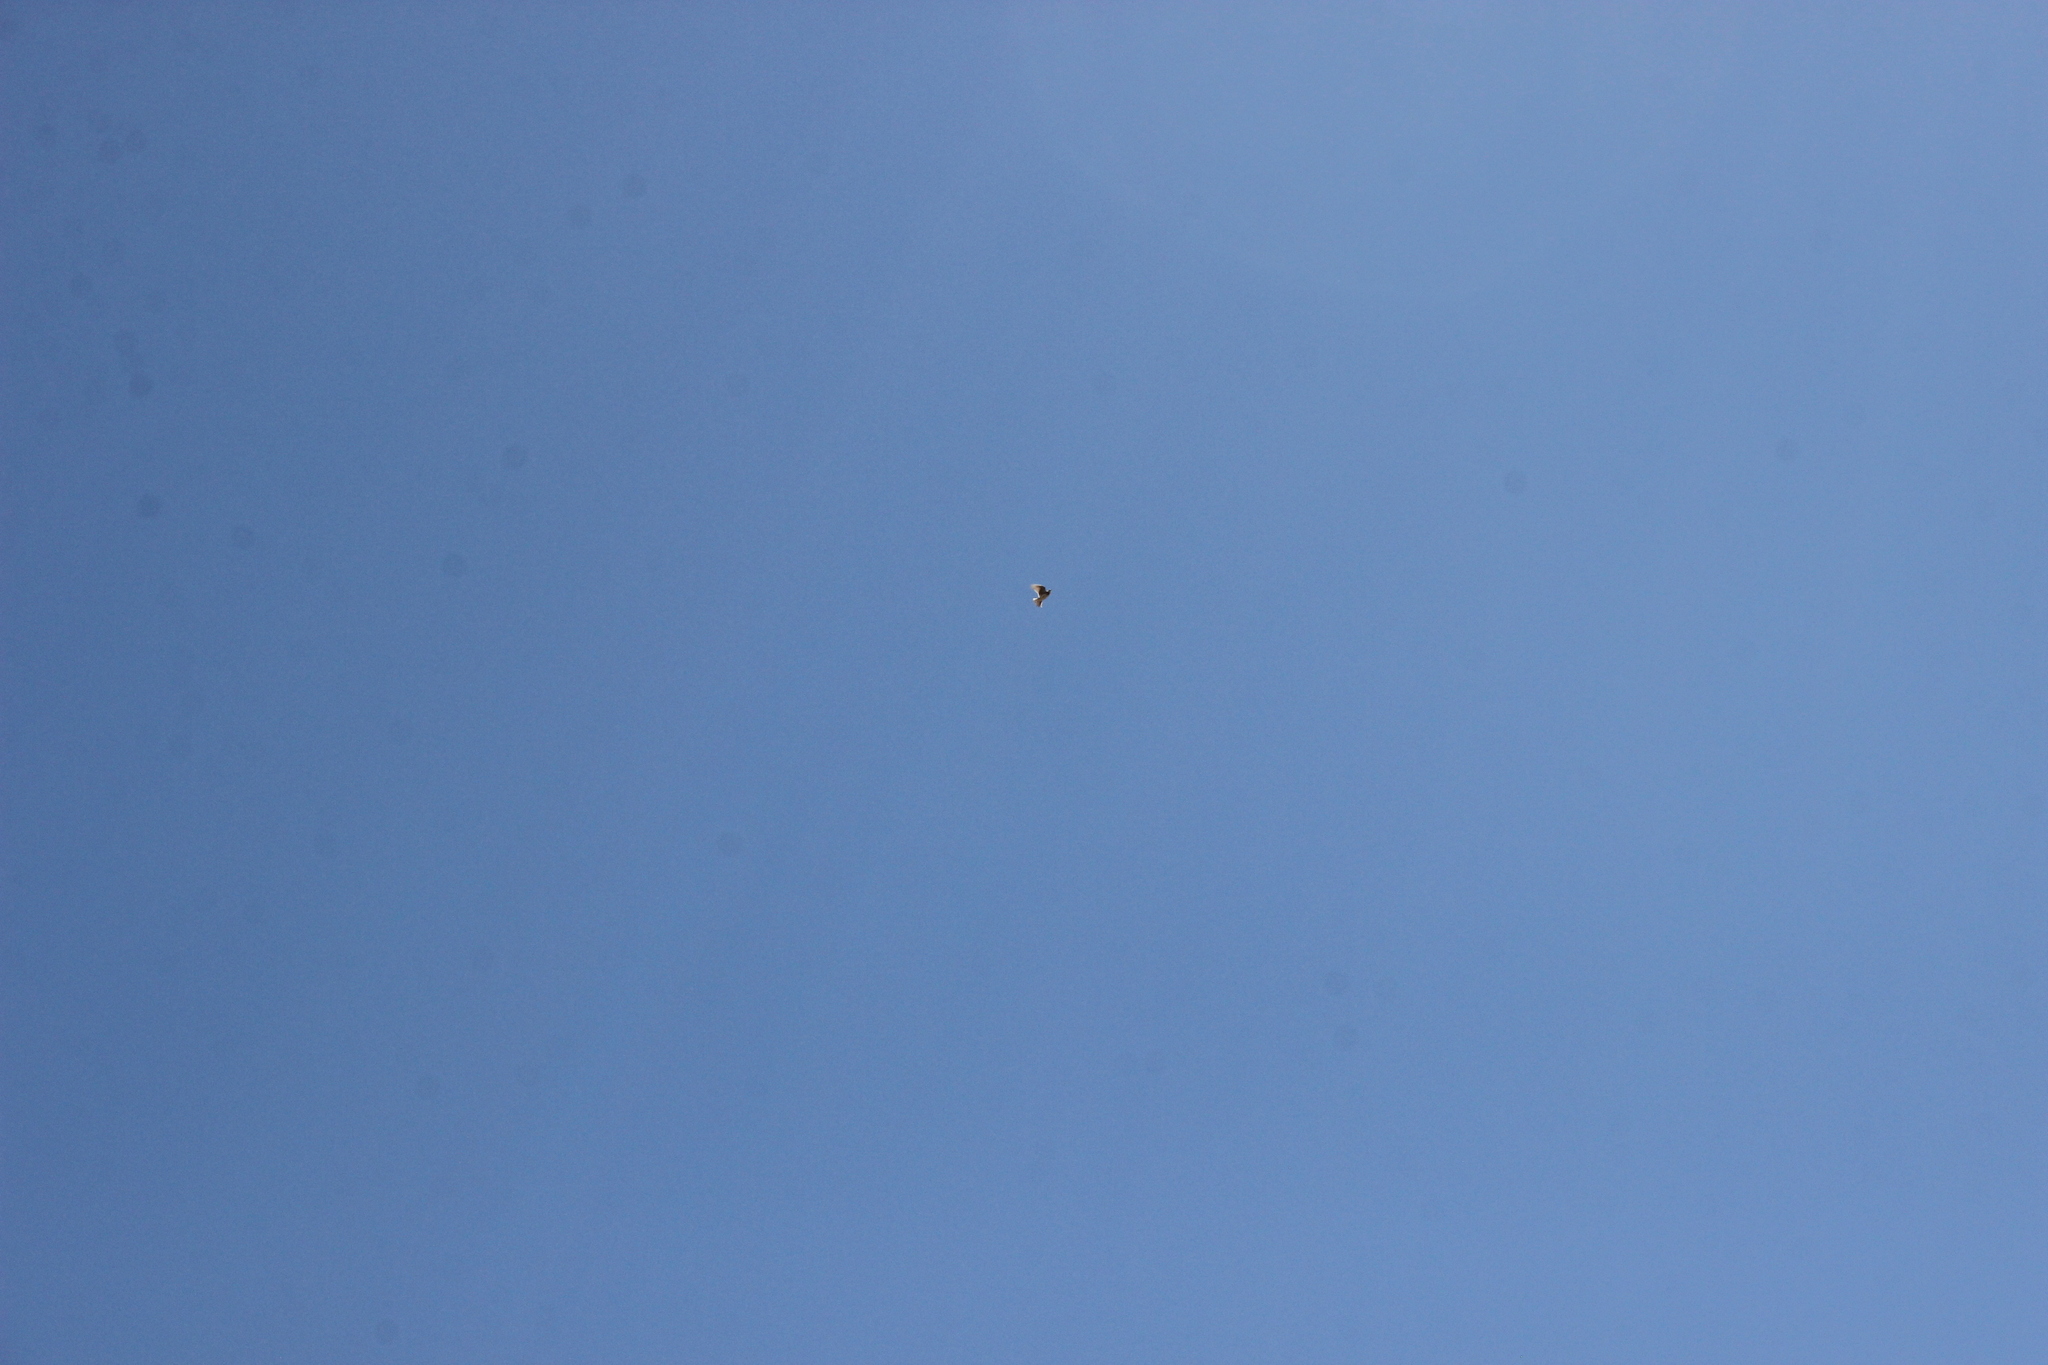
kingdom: Animalia
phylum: Chordata
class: Aves
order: Passeriformes
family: Alaudidae
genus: Alauda
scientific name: Alauda arvensis
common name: Eurasian skylark
